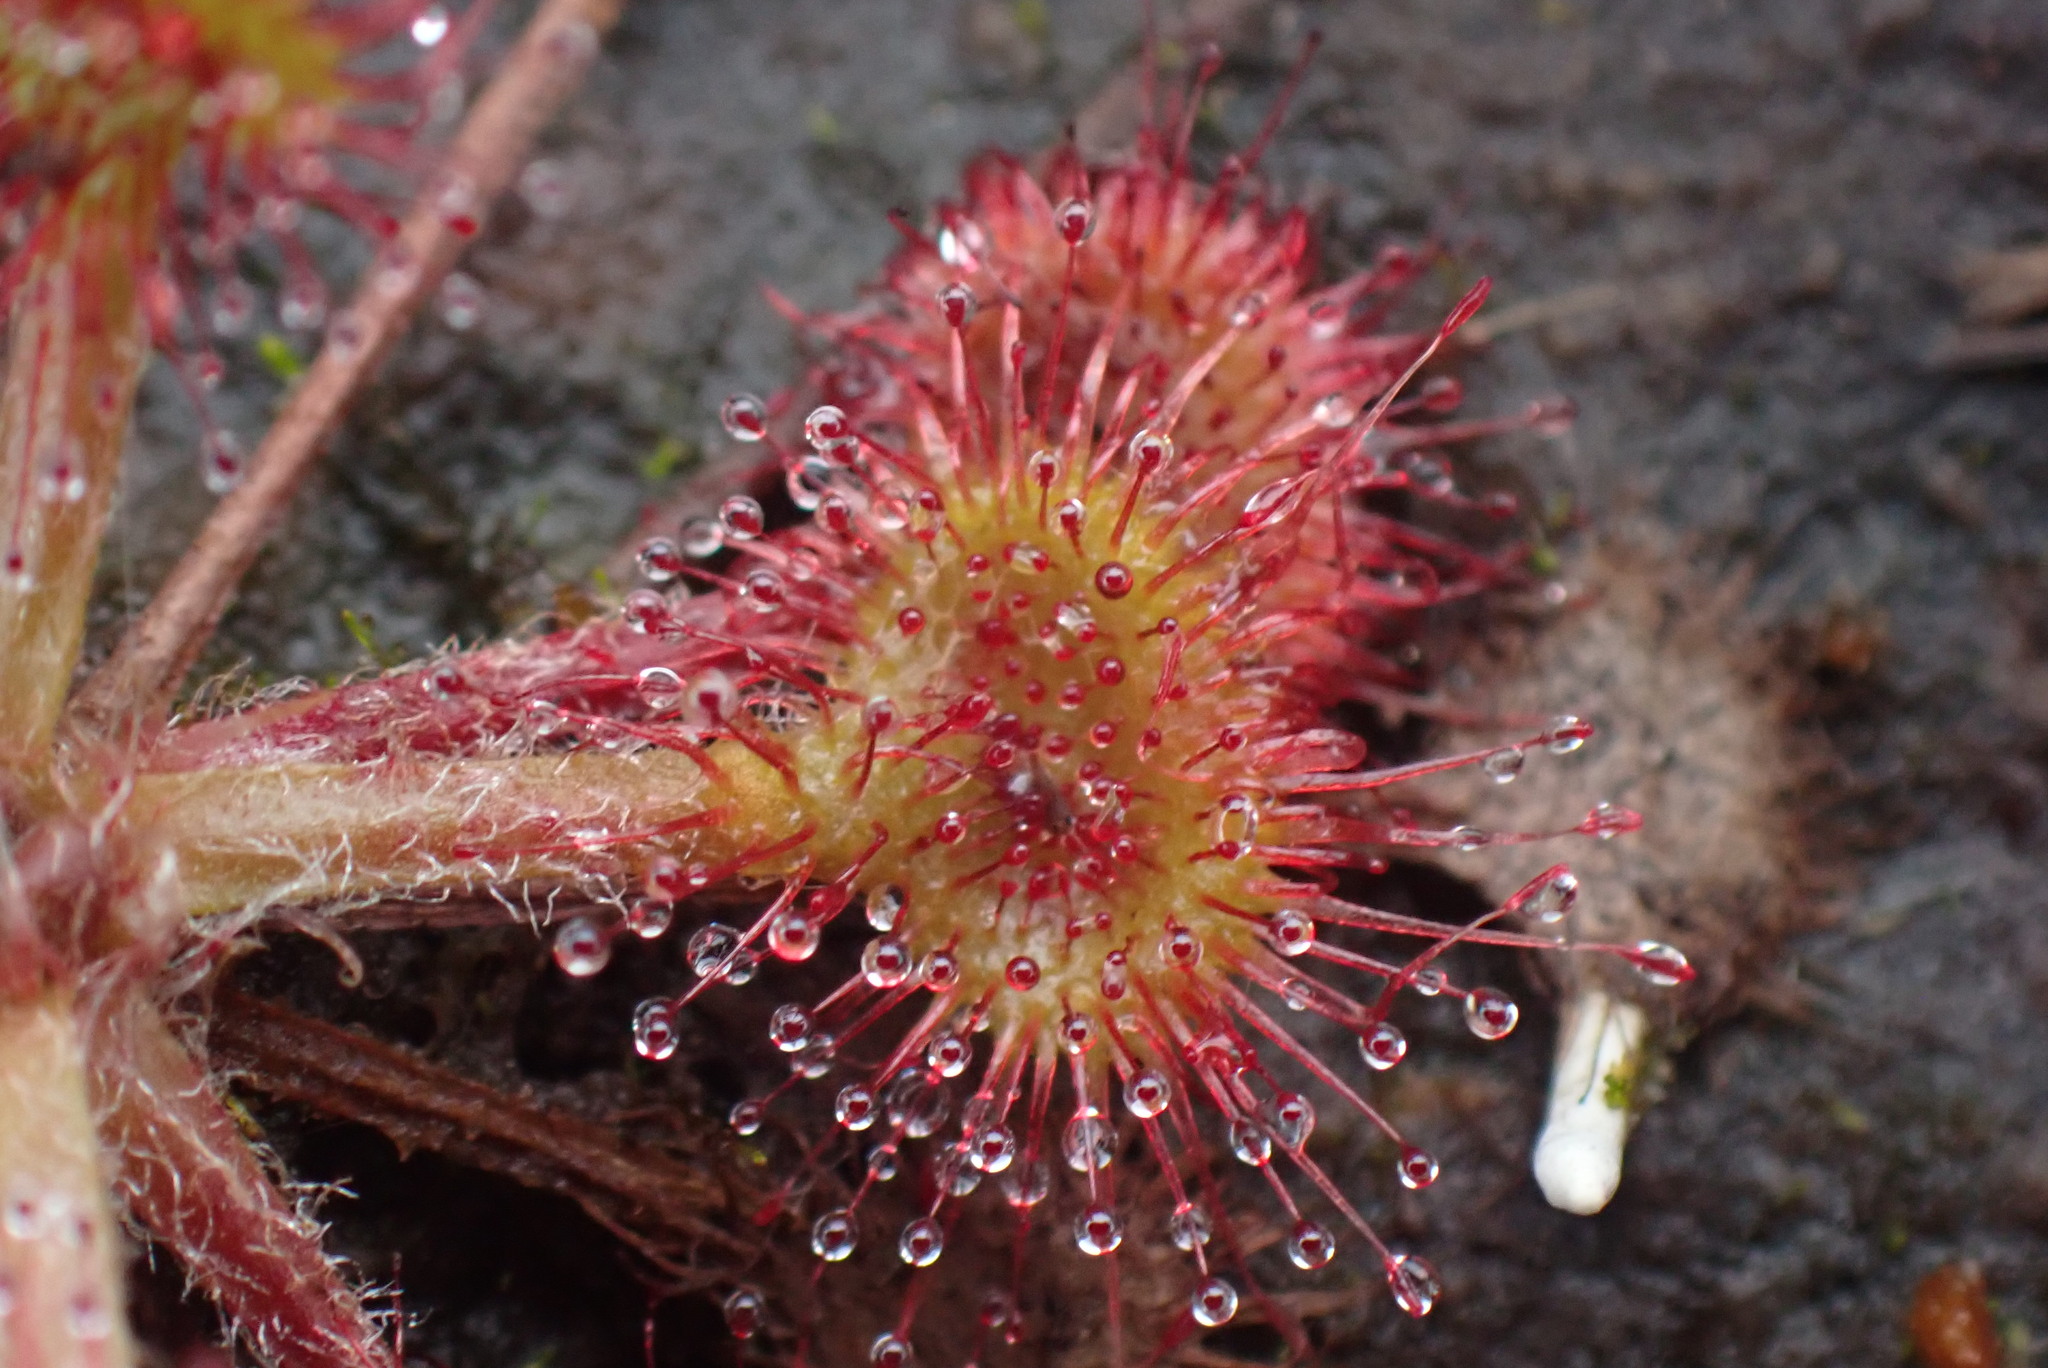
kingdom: Plantae
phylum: Tracheophyta
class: Magnoliopsida
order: Caryophyllales
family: Droseraceae
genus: Drosera
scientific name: Drosera rotundifolia
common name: Round-leaved sundew
